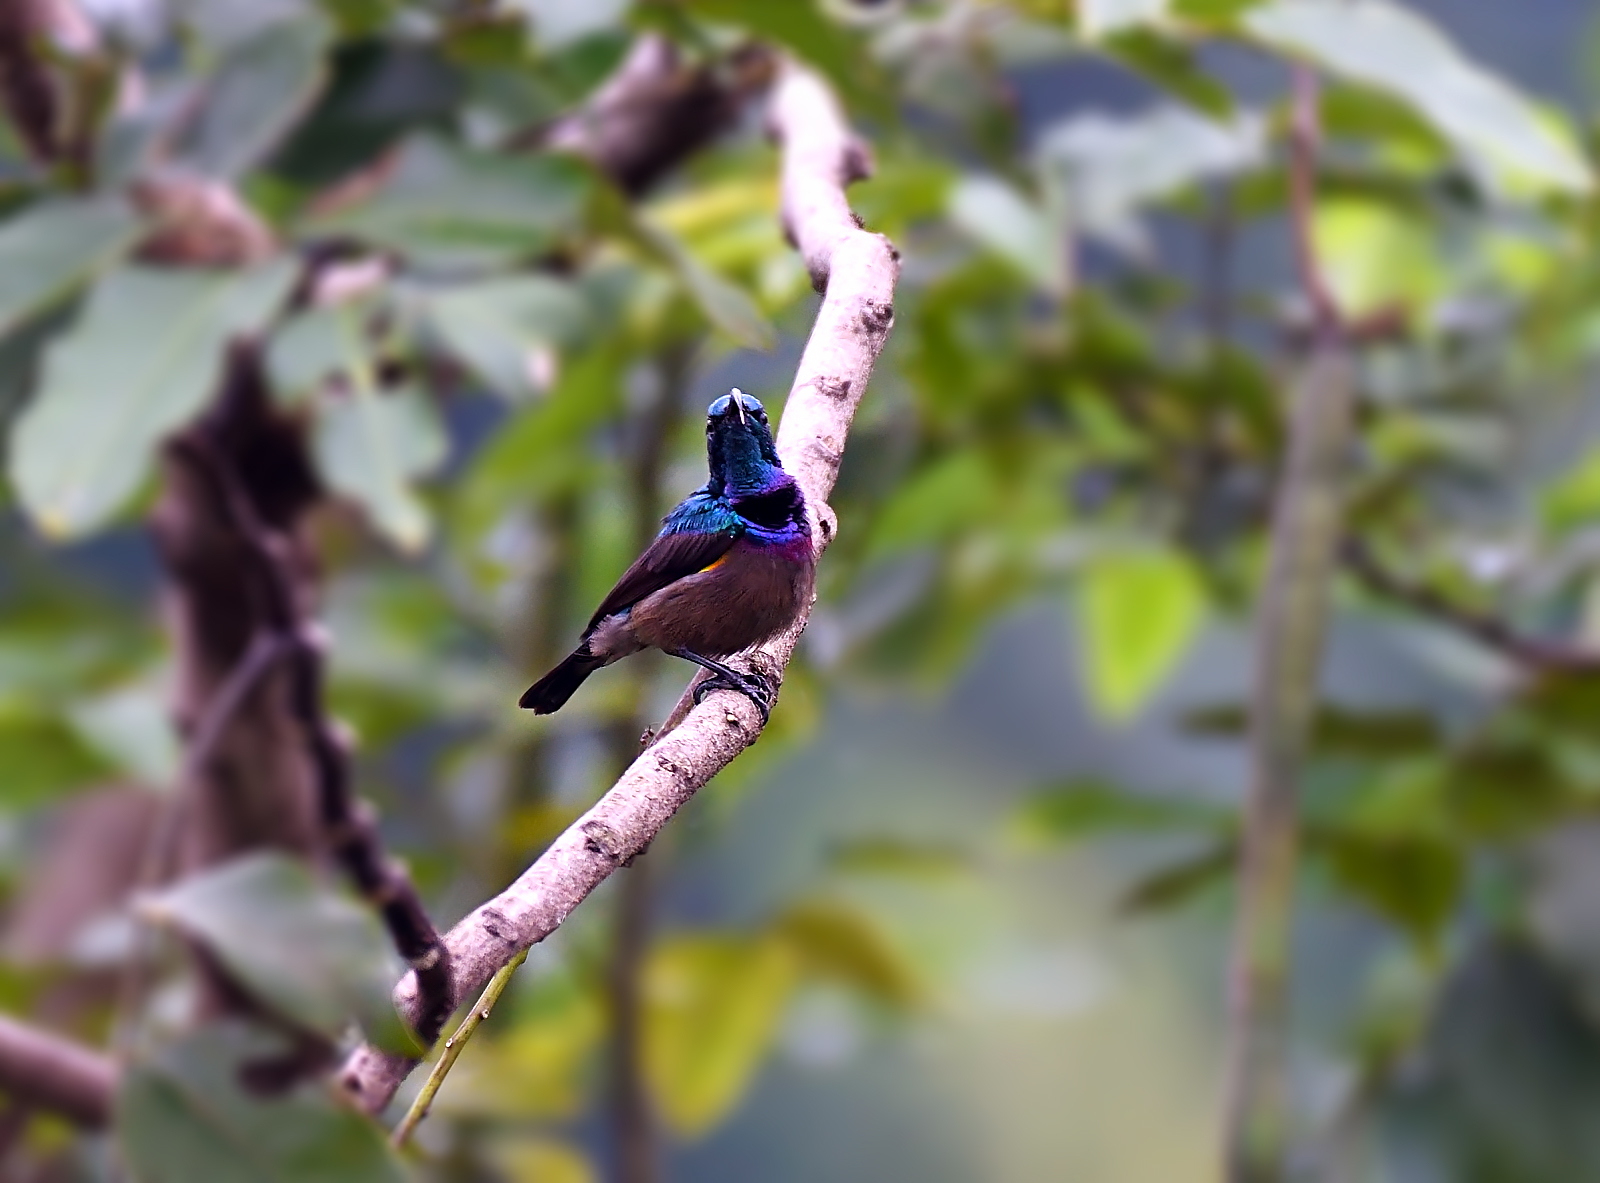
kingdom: Animalia
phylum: Chordata
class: Aves
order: Passeriformes
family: Nectariniidae
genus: Cinnyris
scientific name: Cinnyris lotenius
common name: Loten's sunbird
